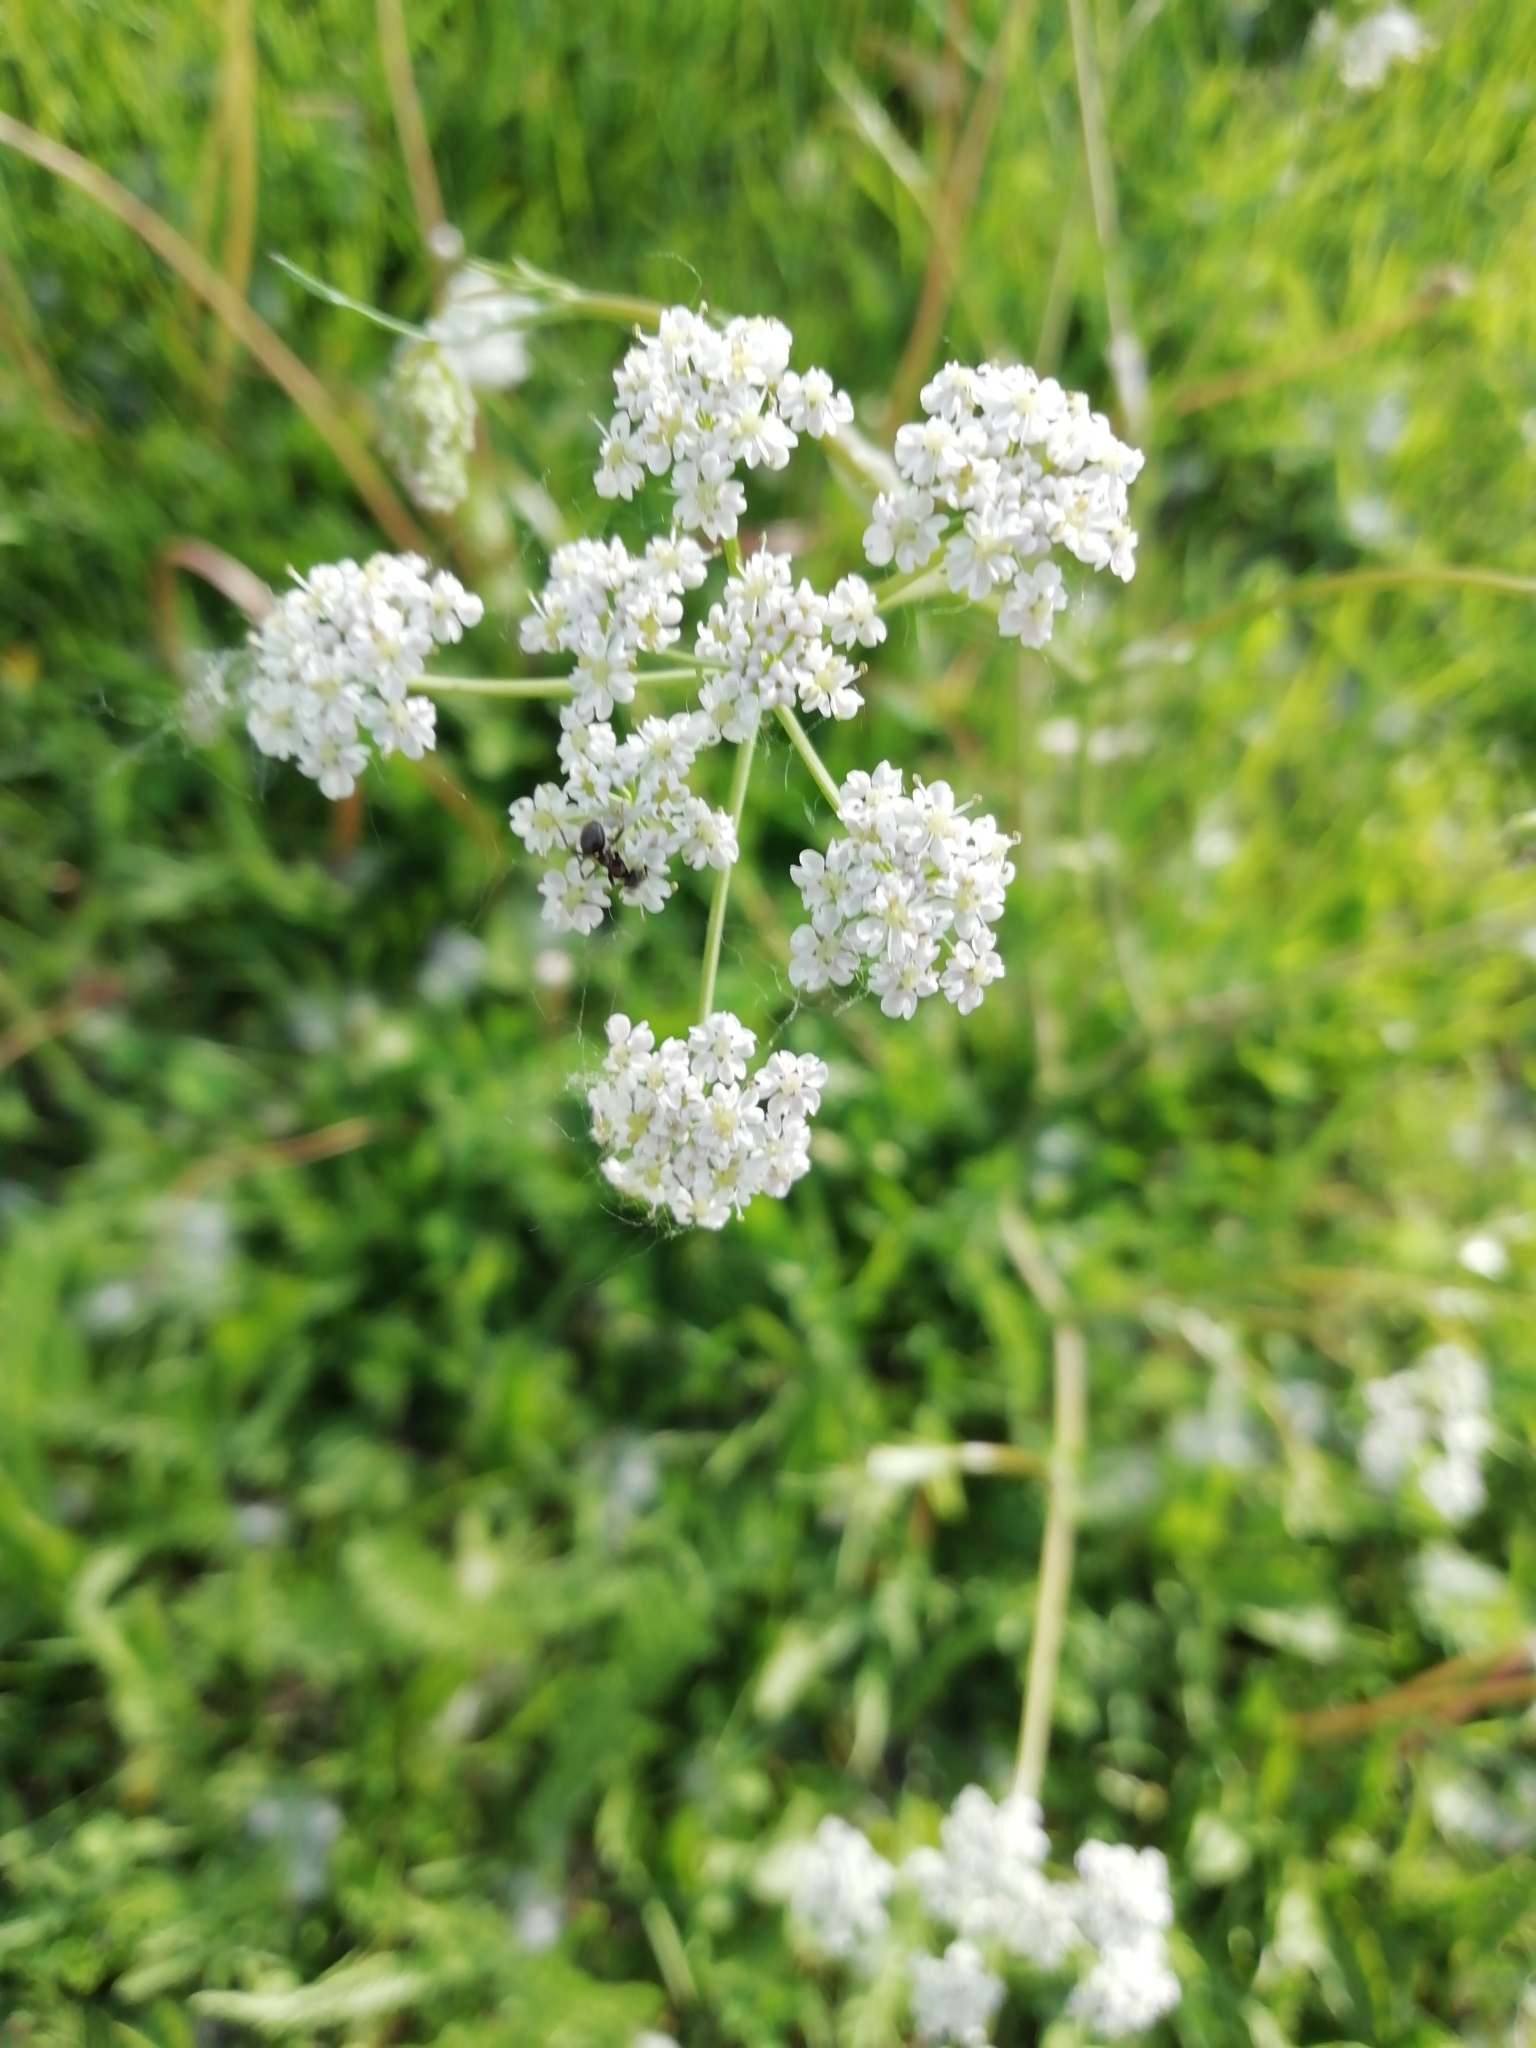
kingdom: Plantae
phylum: Tracheophyta
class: Magnoliopsida
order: Apiales
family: Apiaceae
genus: Carum
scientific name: Carum carvi
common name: Caraway
